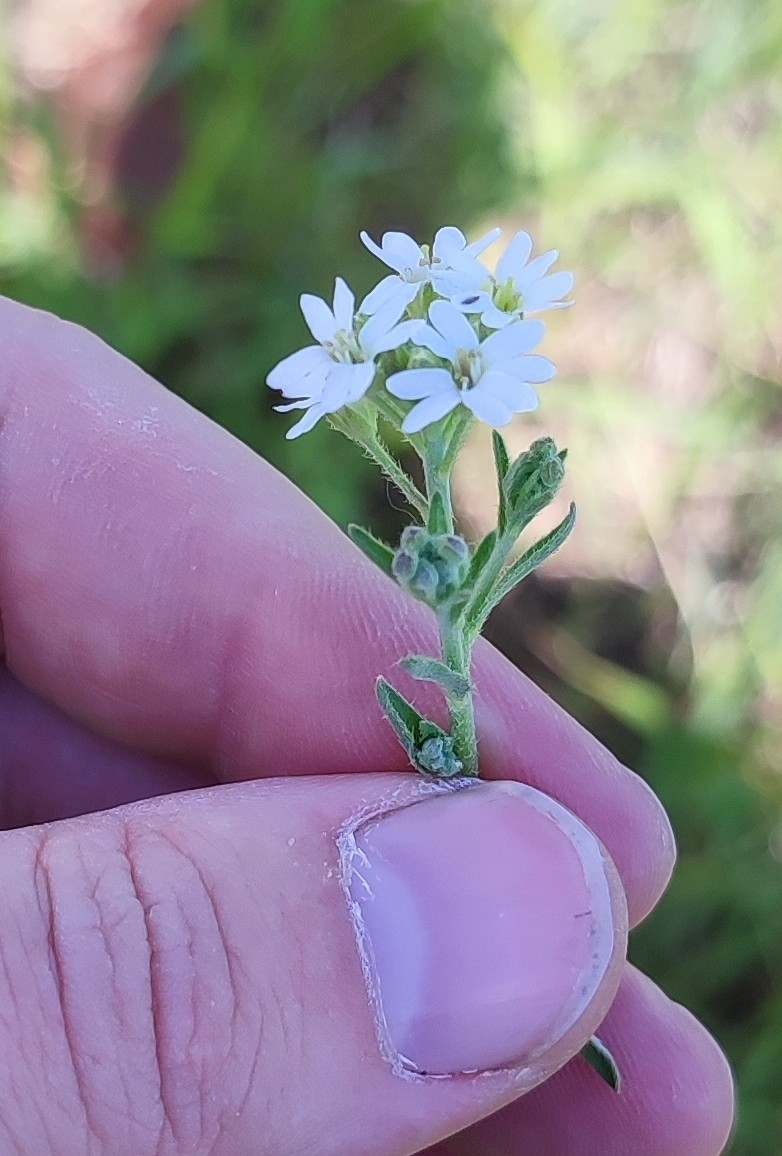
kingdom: Plantae
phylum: Tracheophyta
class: Magnoliopsida
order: Brassicales
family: Brassicaceae
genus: Berteroa
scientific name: Berteroa incana
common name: Hoary alison
